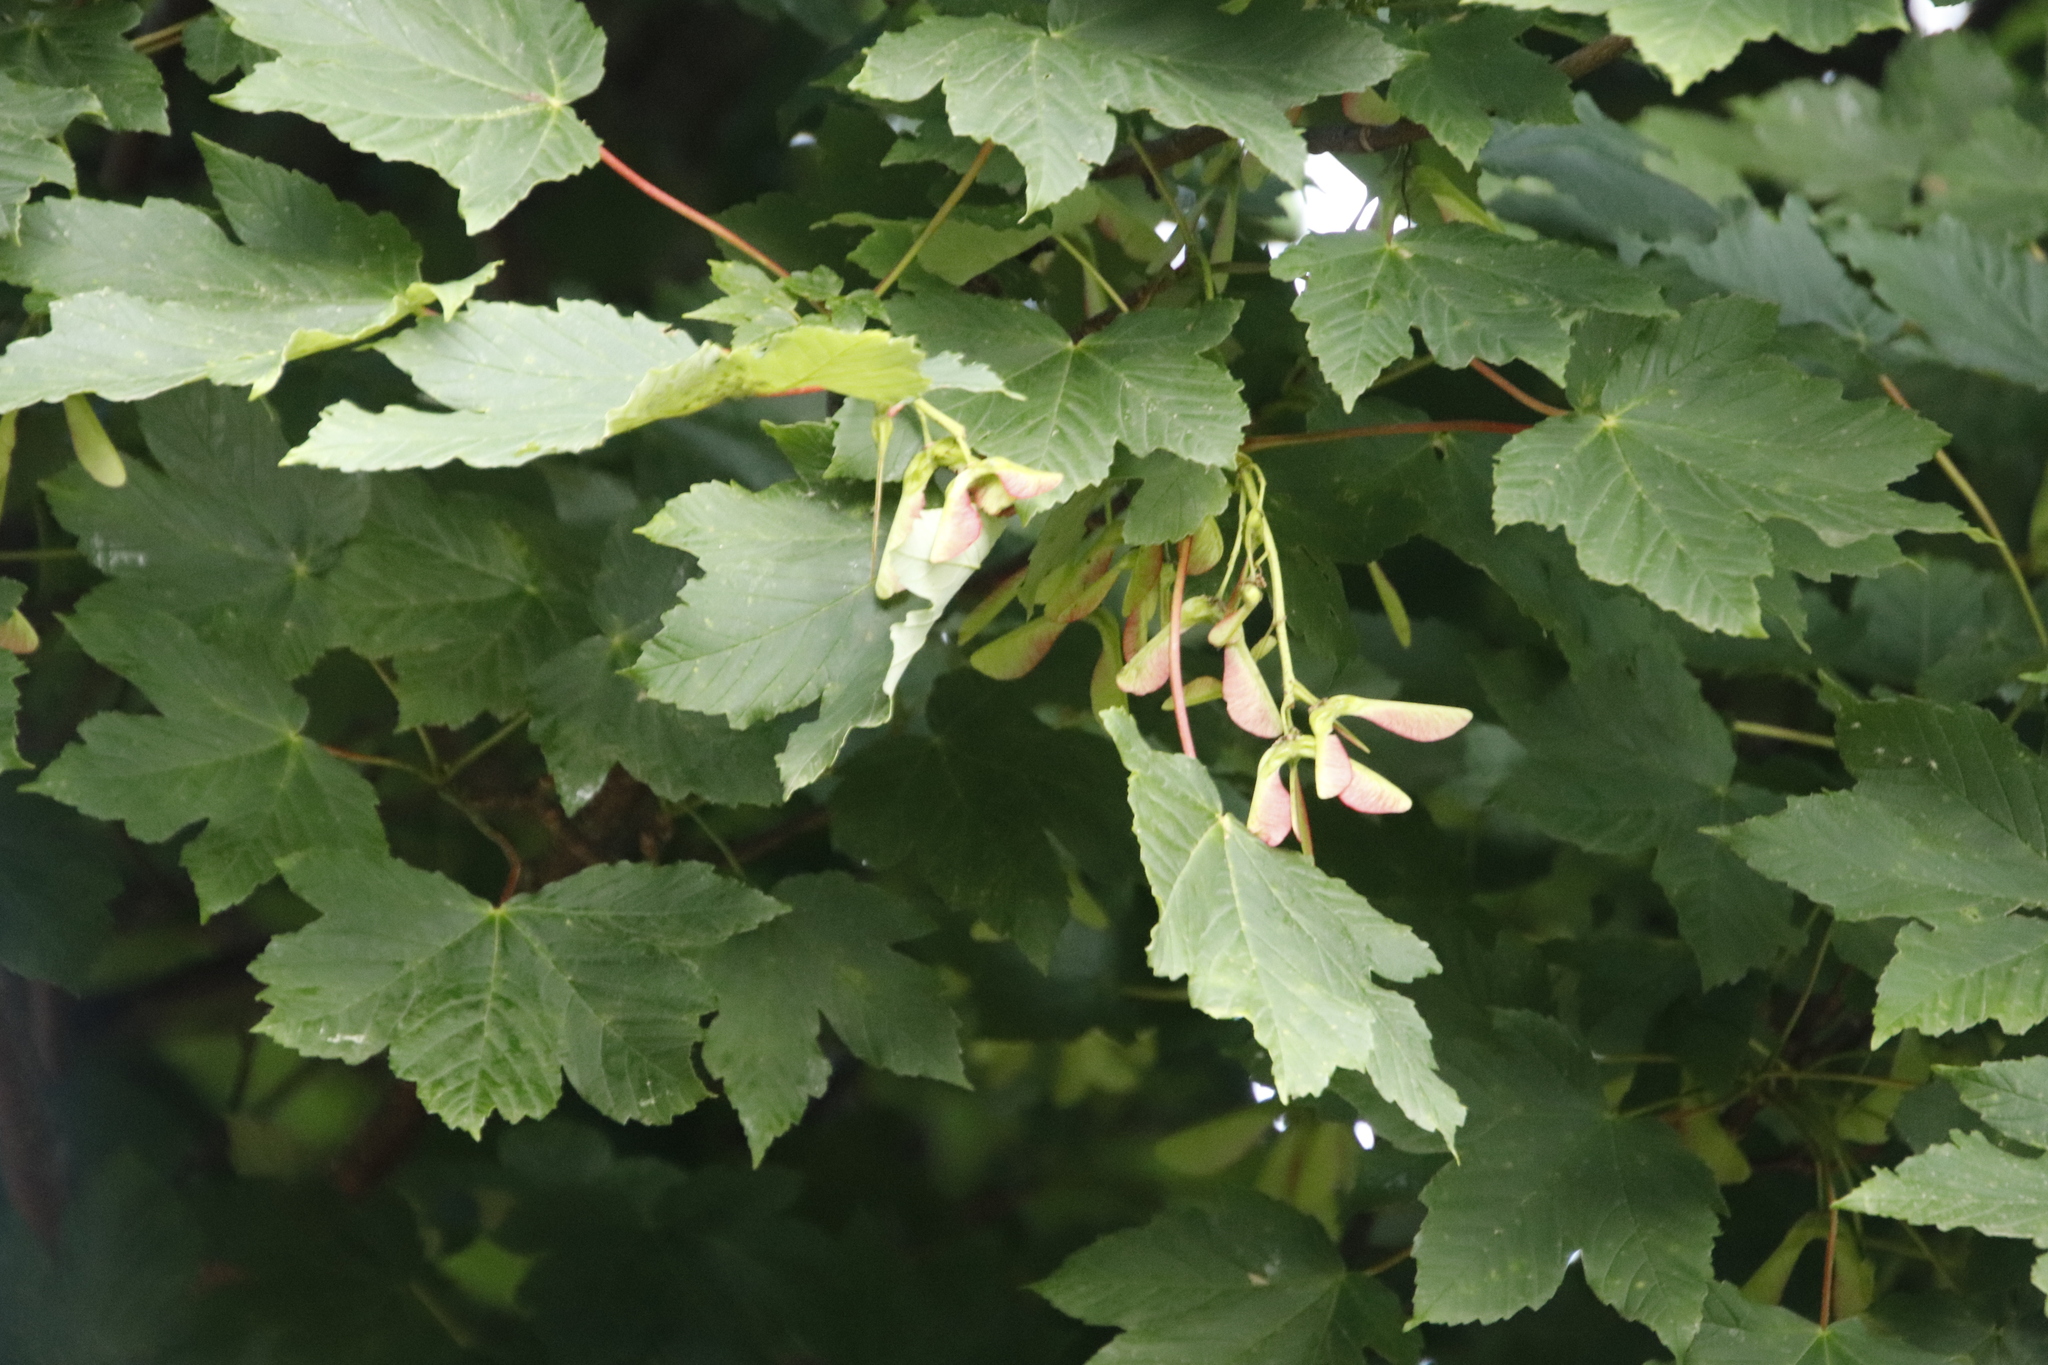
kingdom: Plantae
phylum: Tracheophyta
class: Magnoliopsida
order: Sapindales
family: Sapindaceae
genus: Acer
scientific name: Acer pseudoplatanus
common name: Sycamore
